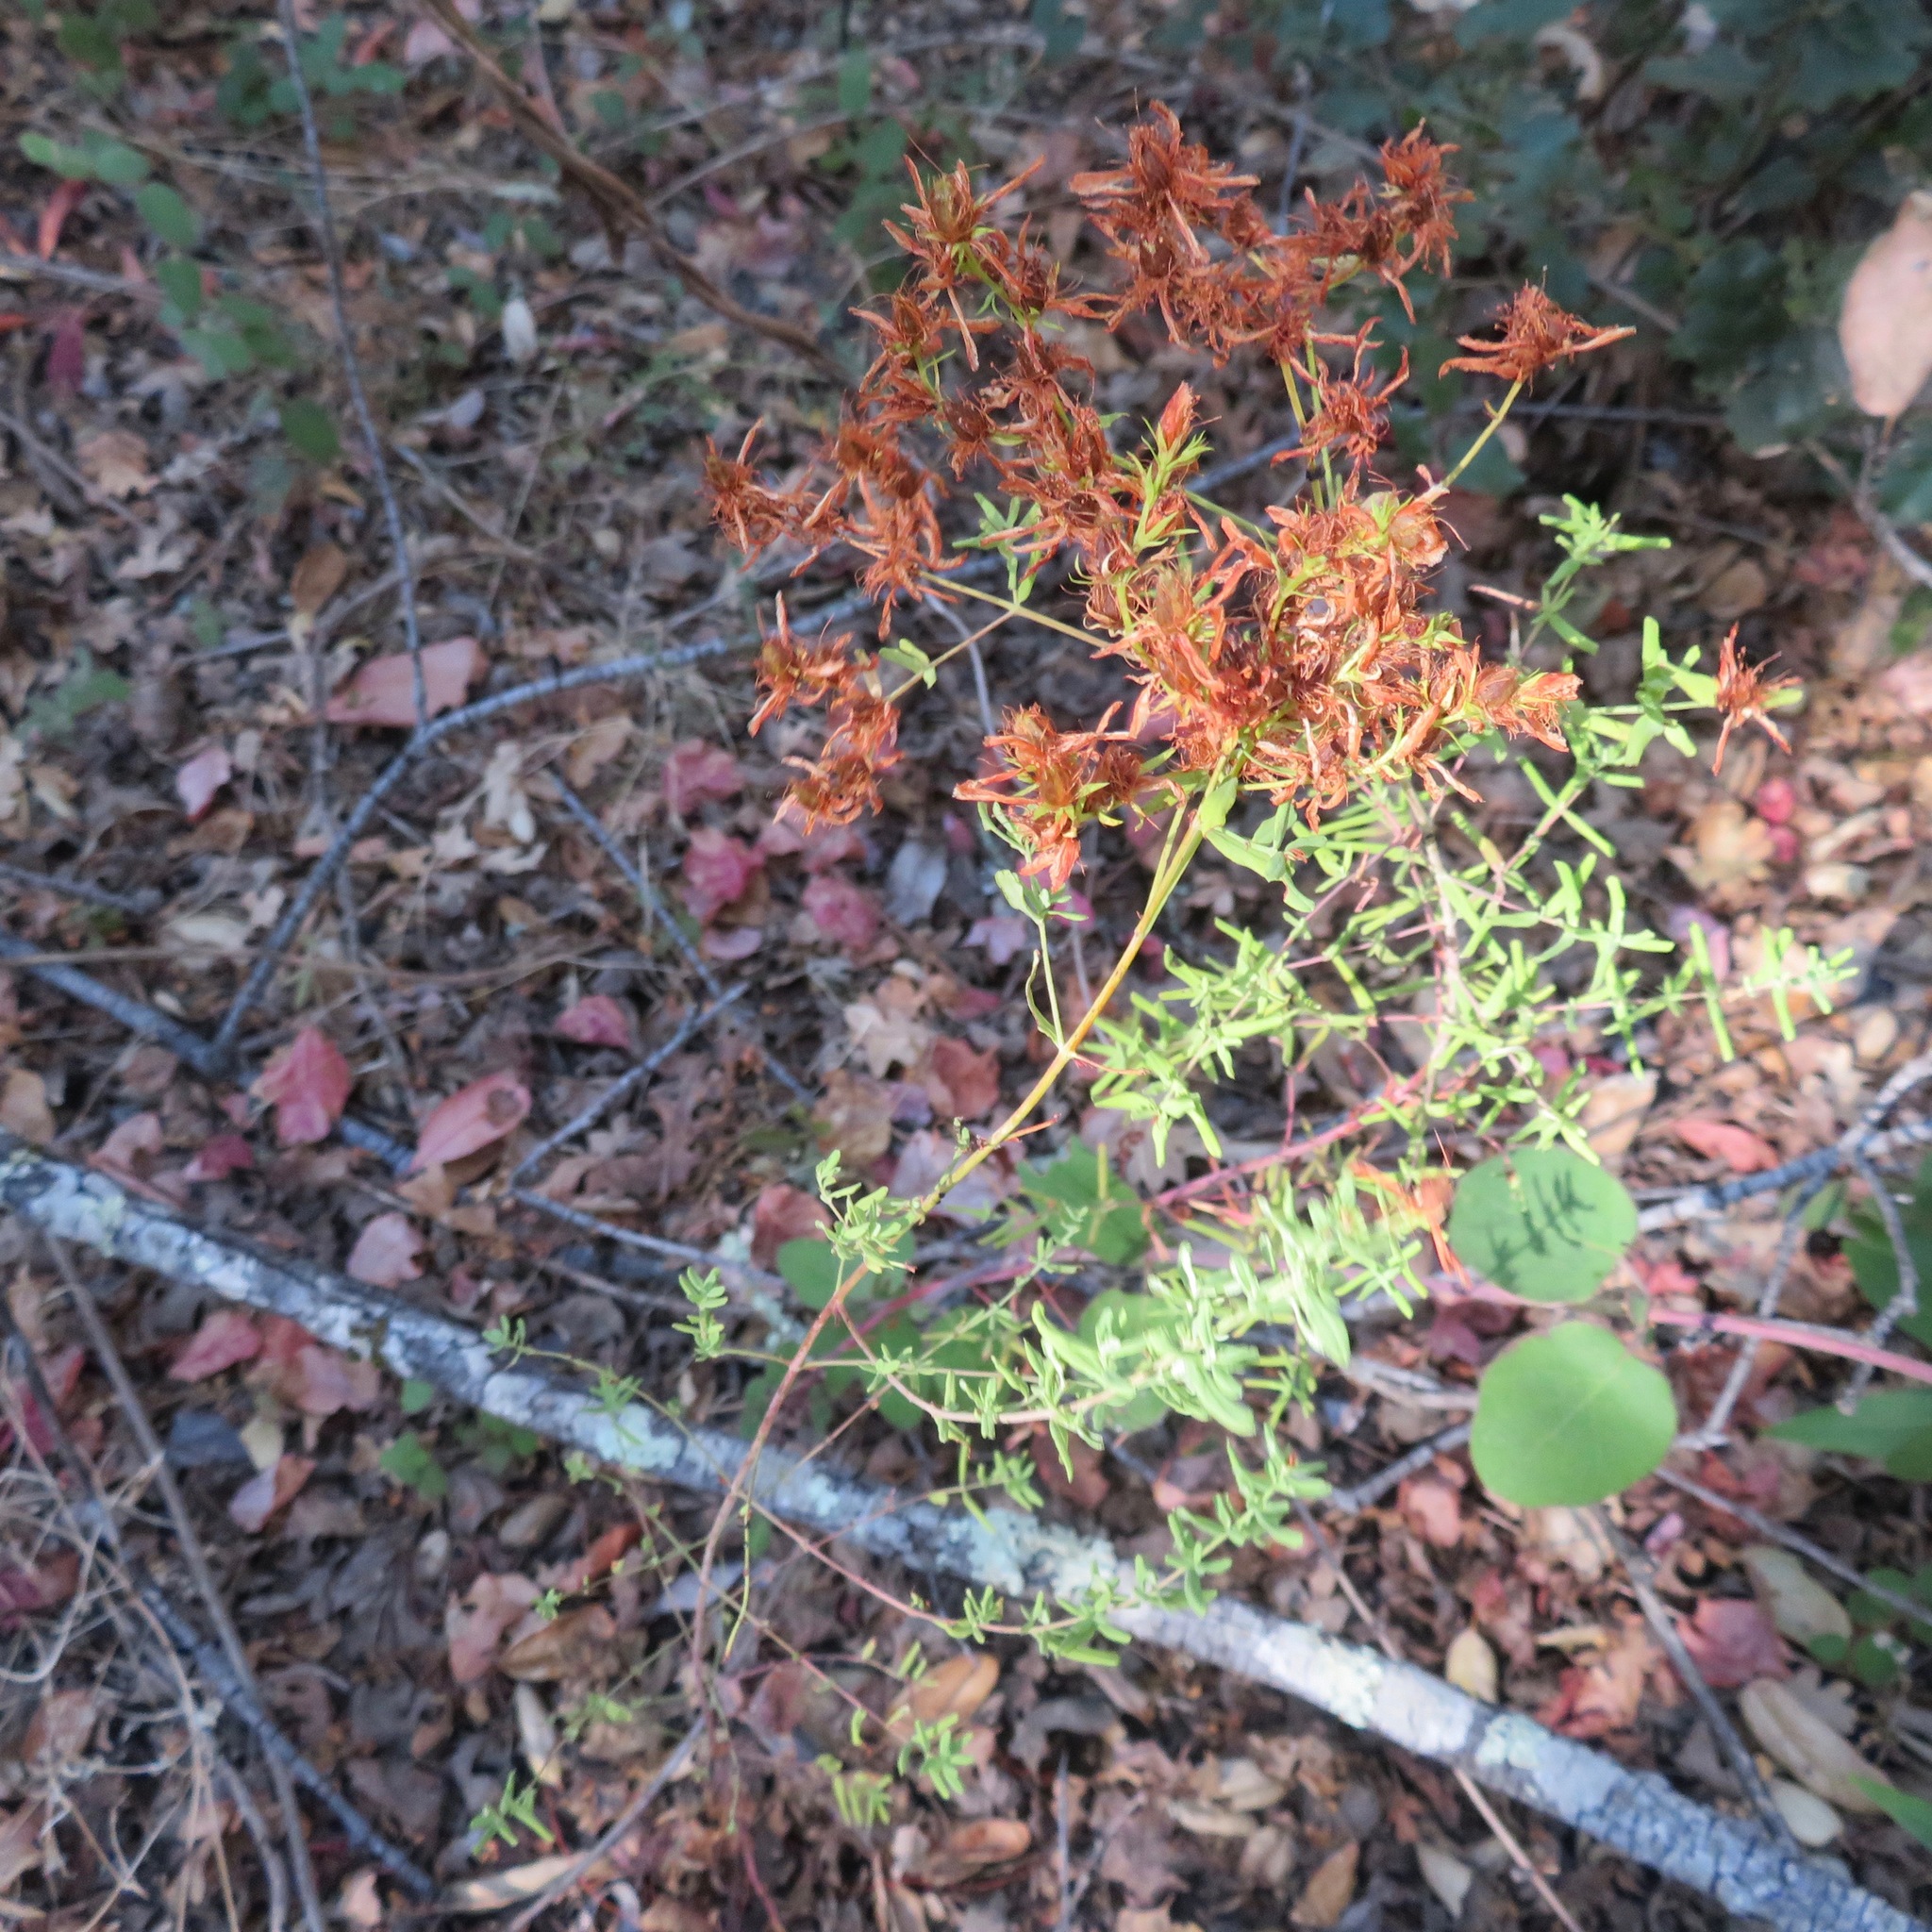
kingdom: Plantae
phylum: Tracheophyta
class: Magnoliopsida
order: Malpighiales
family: Hypericaceae
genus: Hypericum
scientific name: Hypericum perforatum
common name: Common st. johnswort
